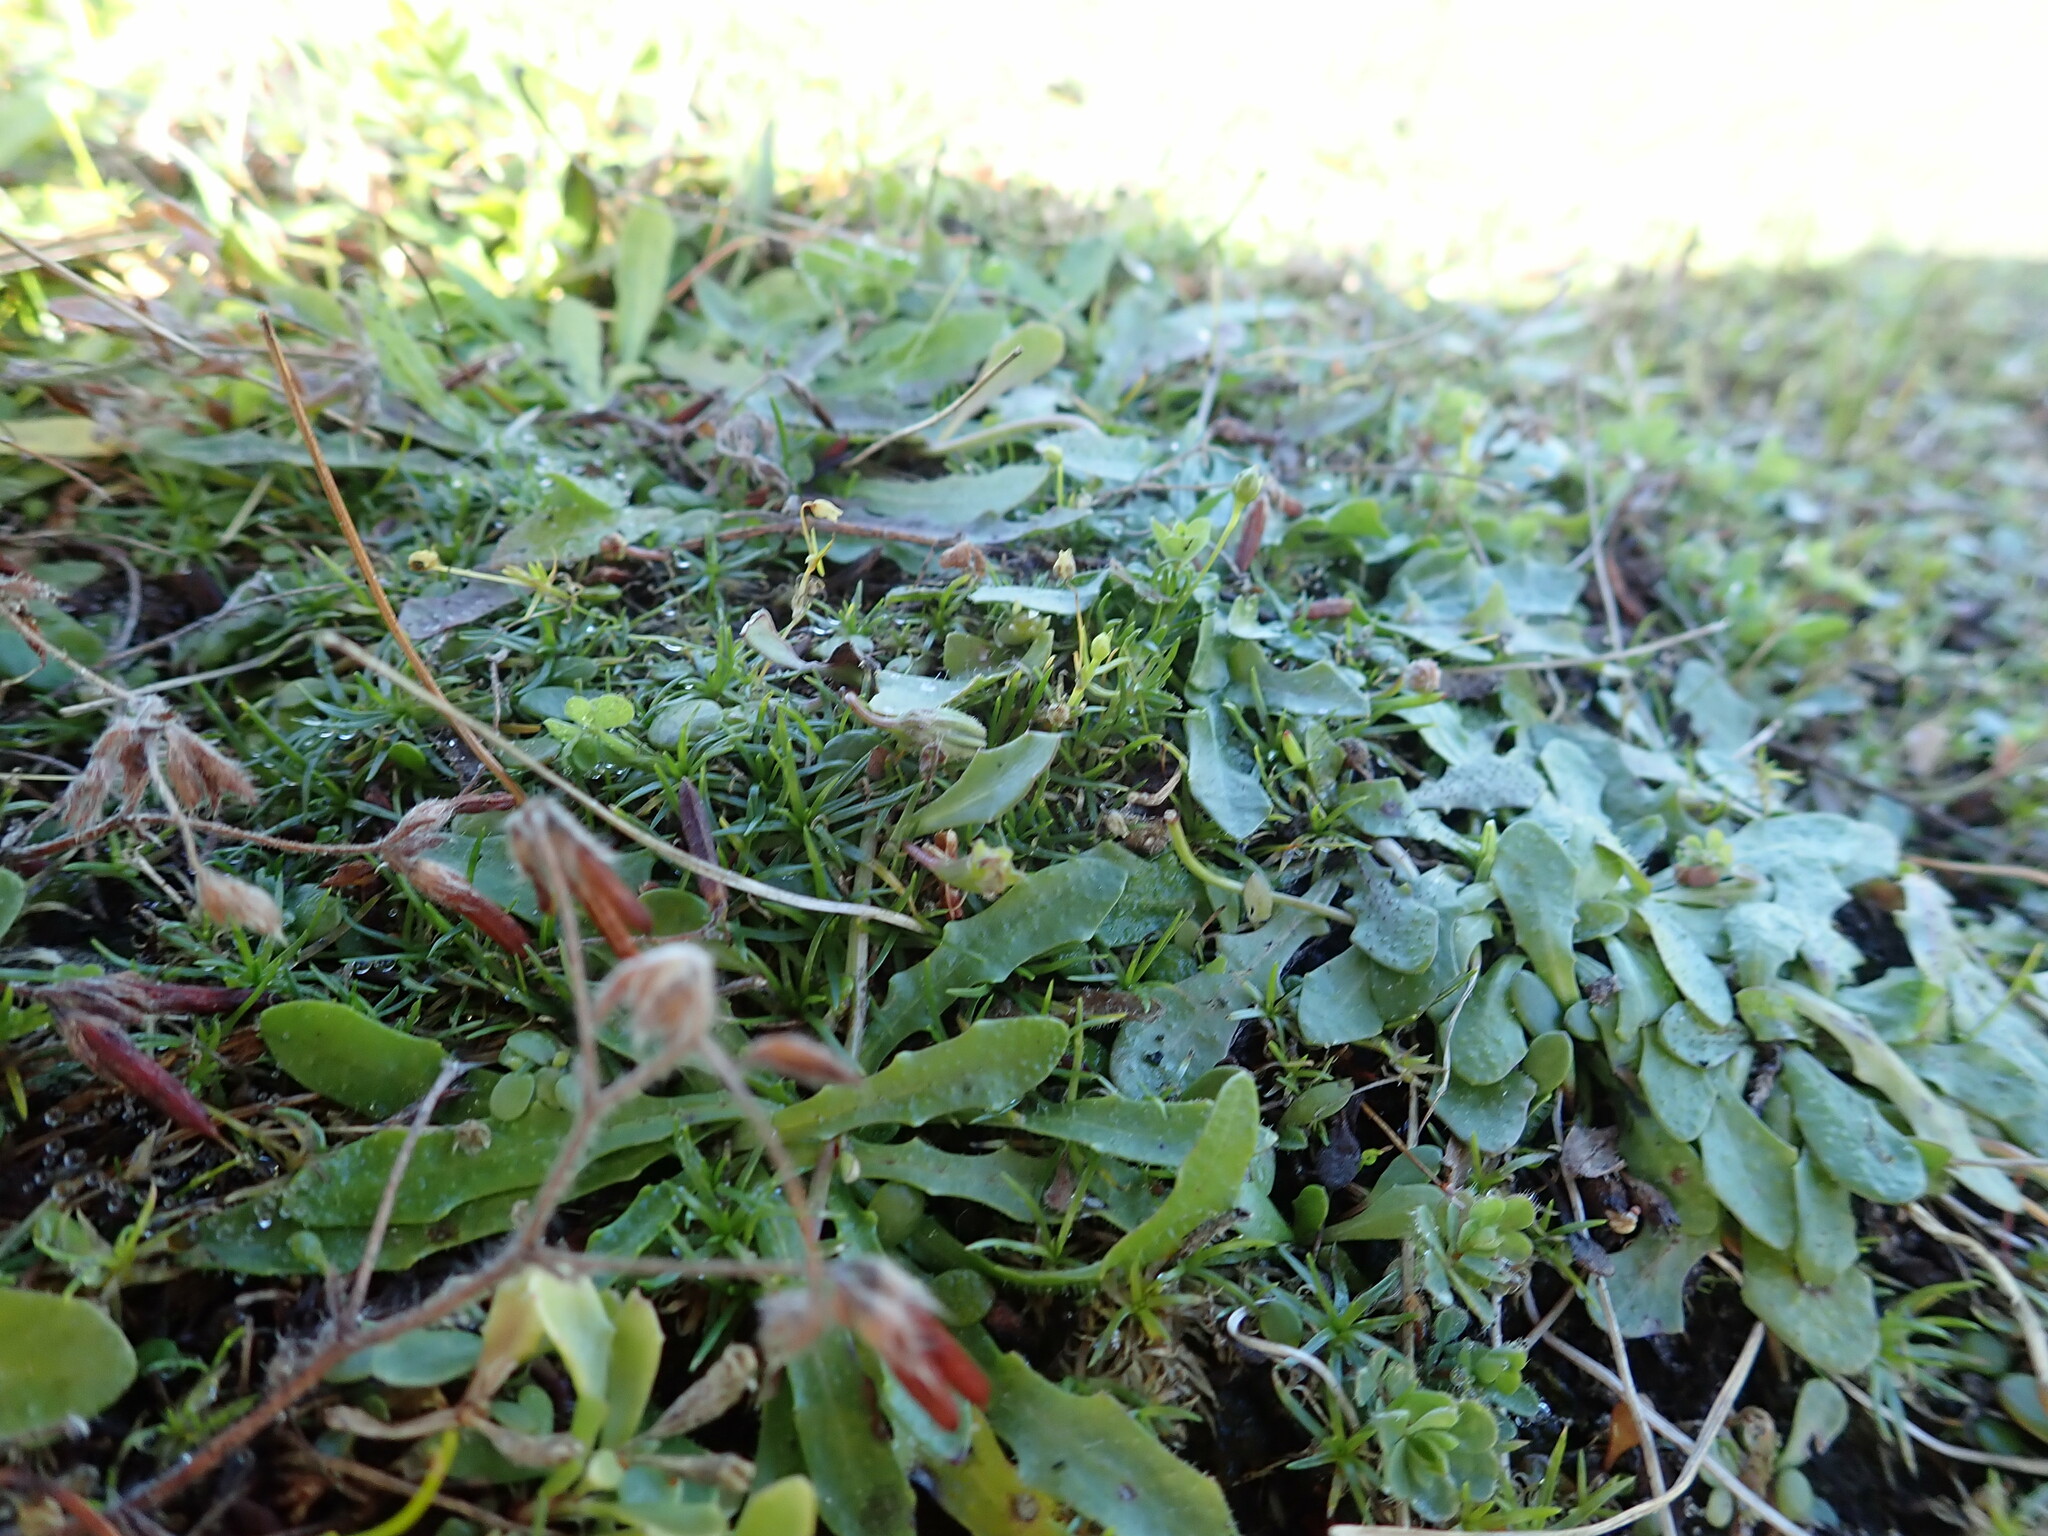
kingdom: Plantae
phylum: Tracheophyta
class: Magnoliopsida
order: Caryophyllales
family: Caryophyllaceae
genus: Sagina
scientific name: Sagina procumbens
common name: Procumbent pearlwort
